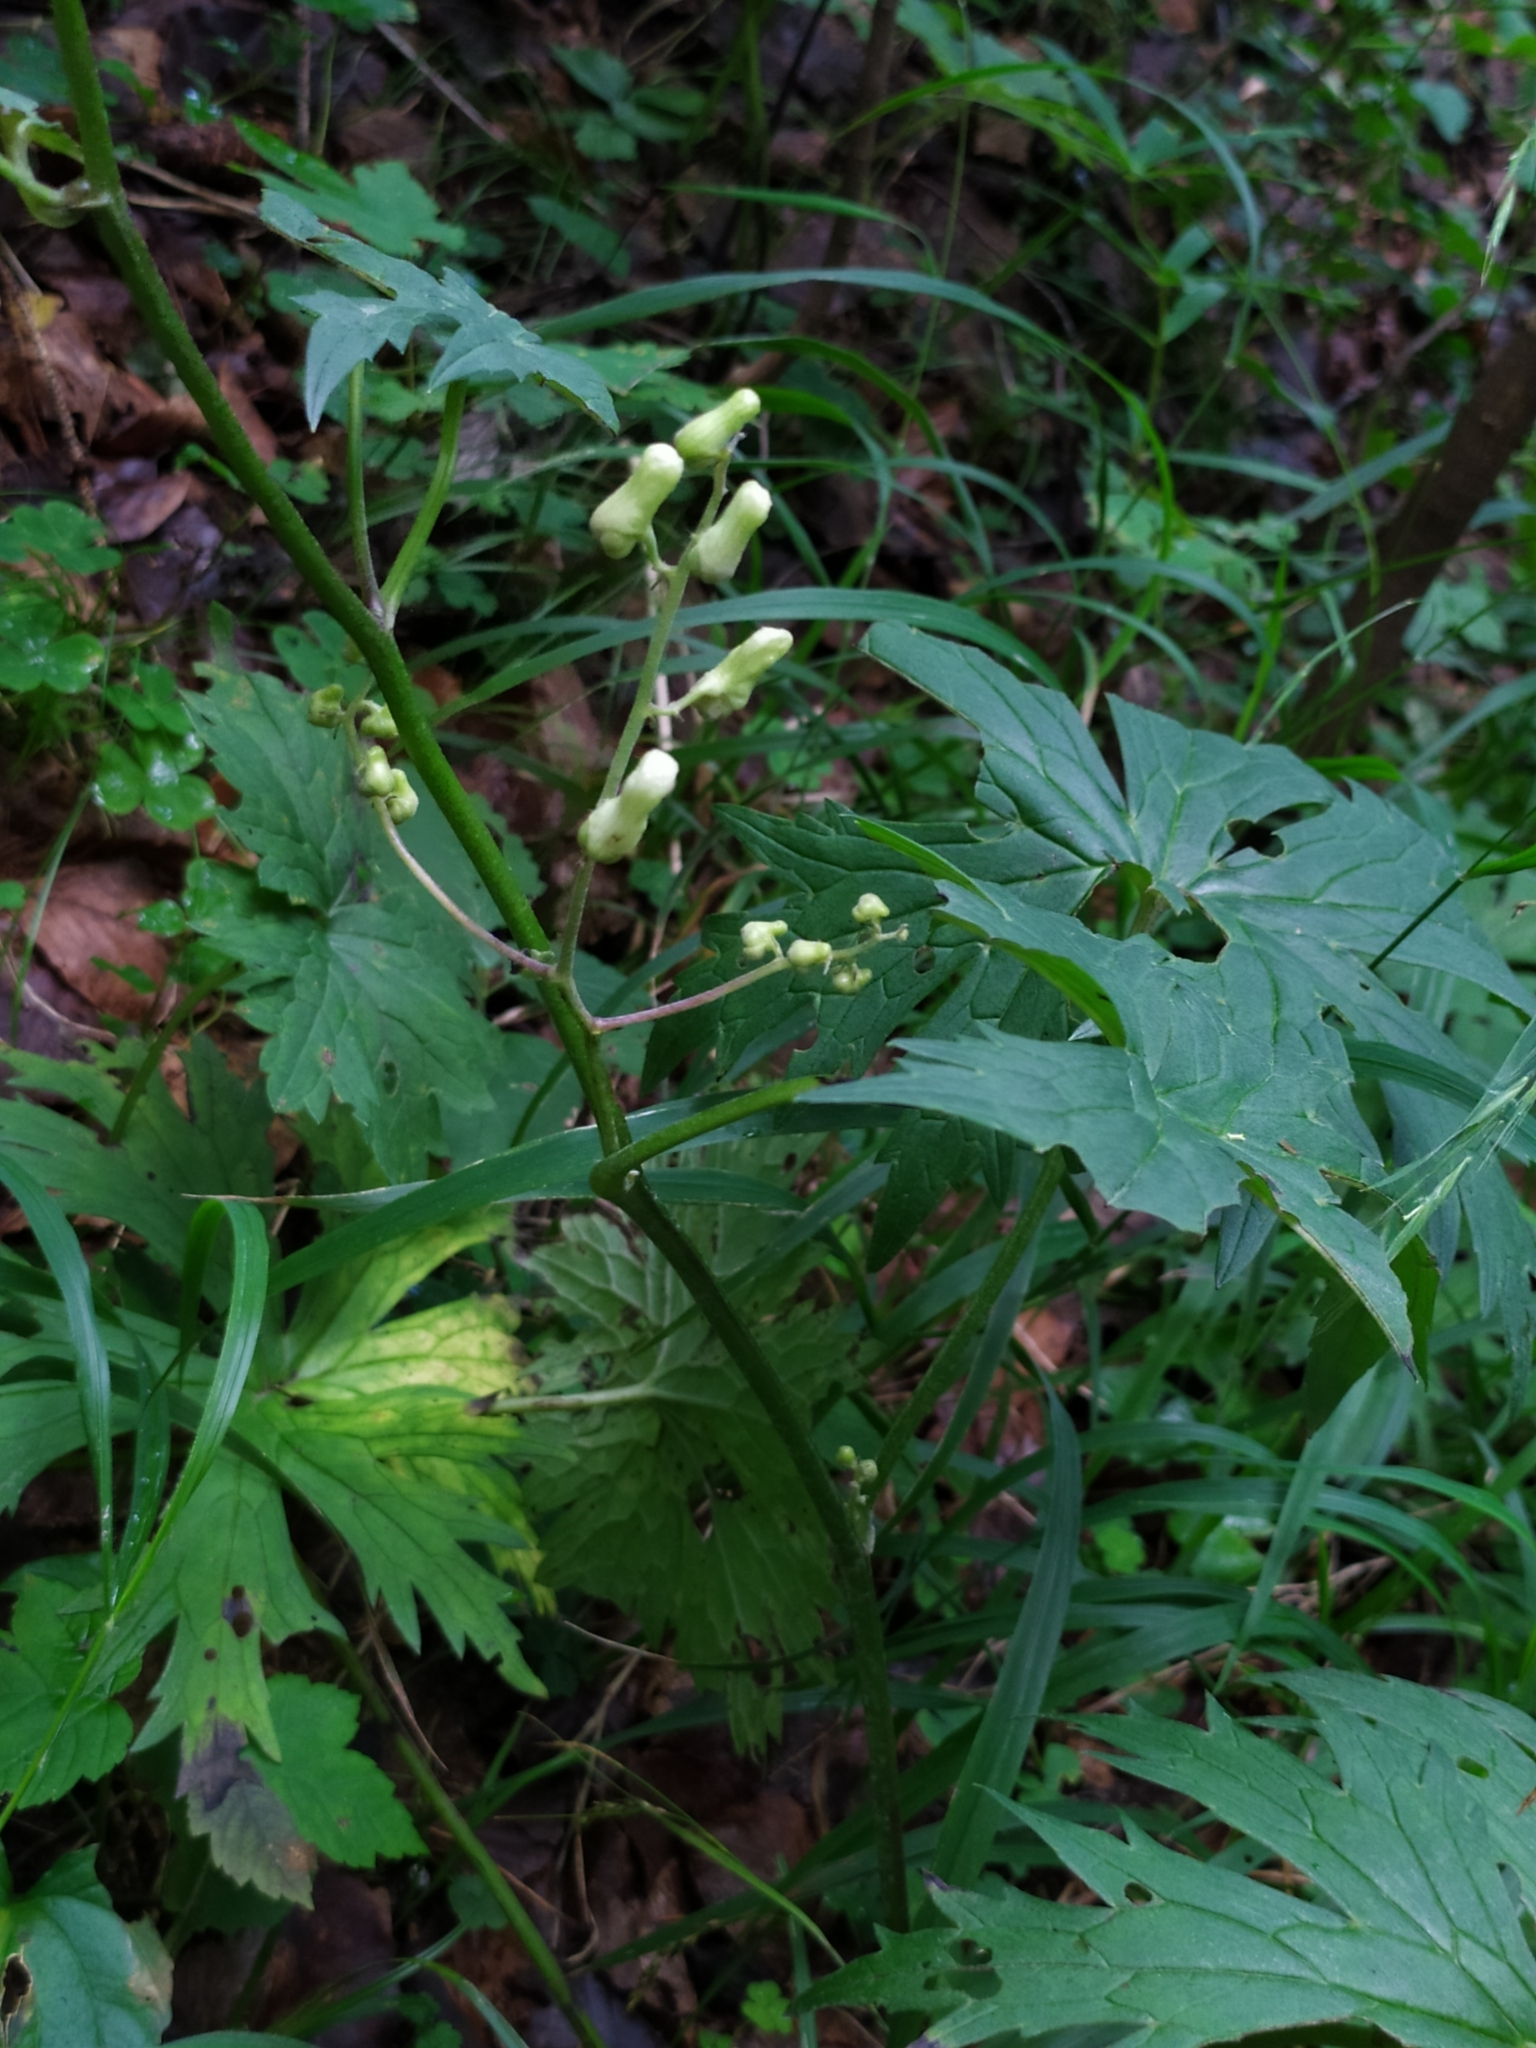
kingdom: Plantae
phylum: Tracheophyta
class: Magnoliopsida
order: Ranunculales
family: Ranunculaceae
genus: Aconitum
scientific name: Aconitum lycoctonum
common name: Wolf's-bane
